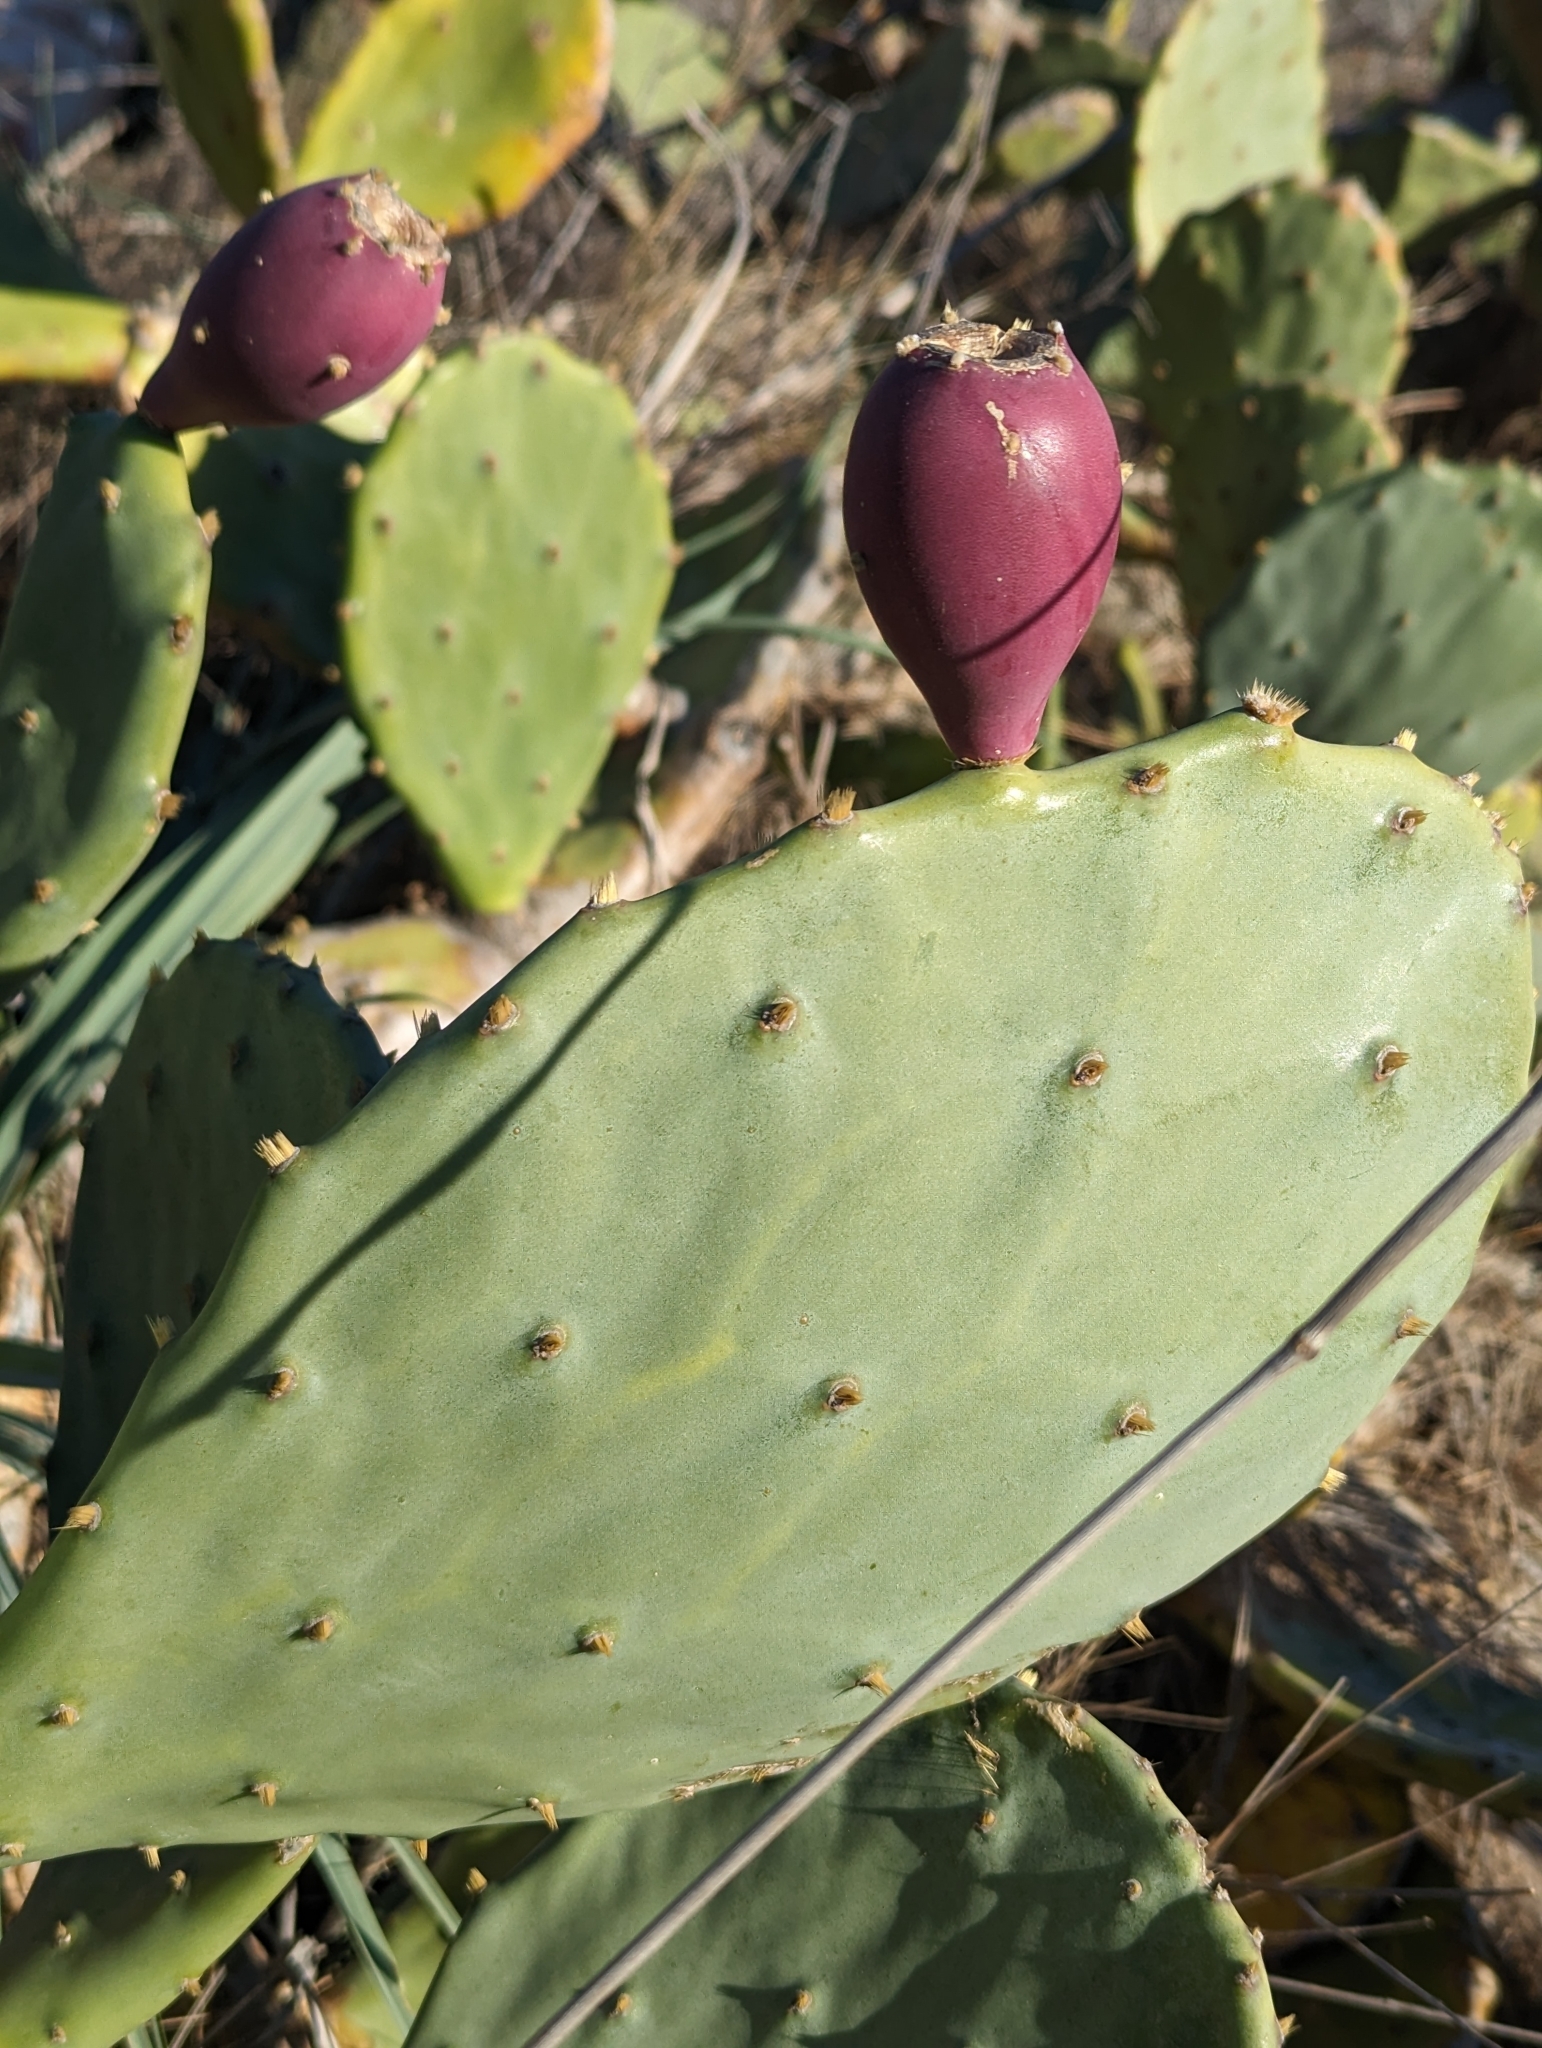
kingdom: Plantae
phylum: Tracheophyta
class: Magnoliopsida
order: Caryophyllales
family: Cactaceae
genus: Opuntia
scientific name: Opuntia anahuacensis
